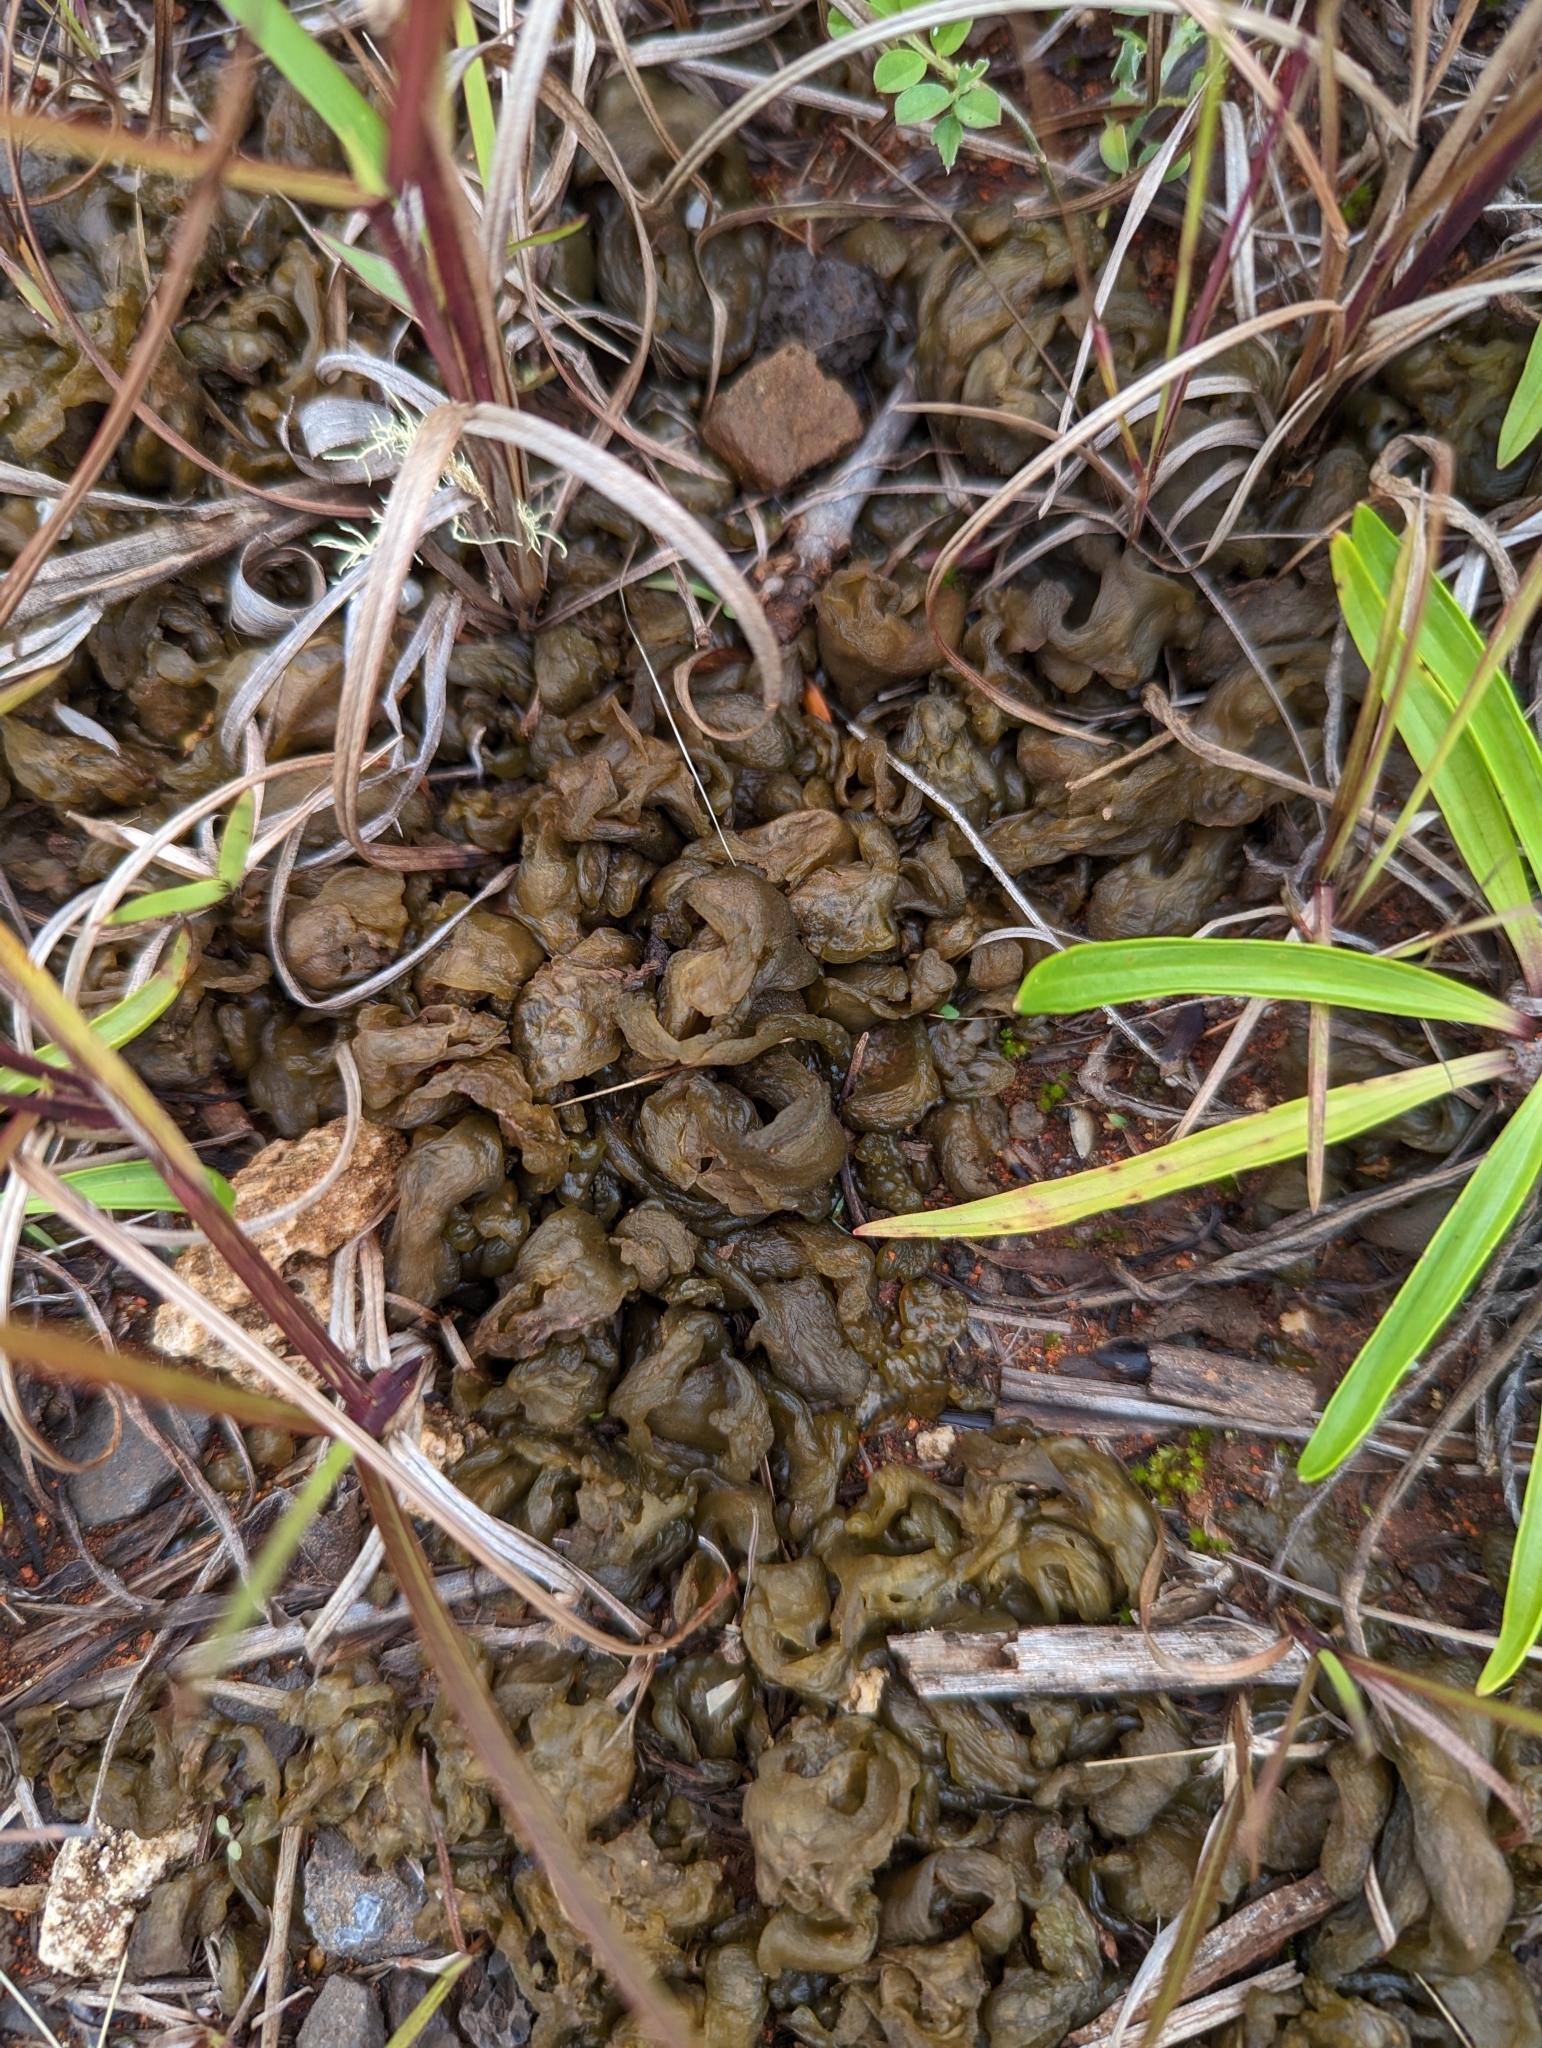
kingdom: Bacteria
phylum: Cyanobacteria
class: Cyanobacteriia
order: Cyanobacteriales
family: Nostocaceae
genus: Nostoc
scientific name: Nostoc commune
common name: Star jelly
